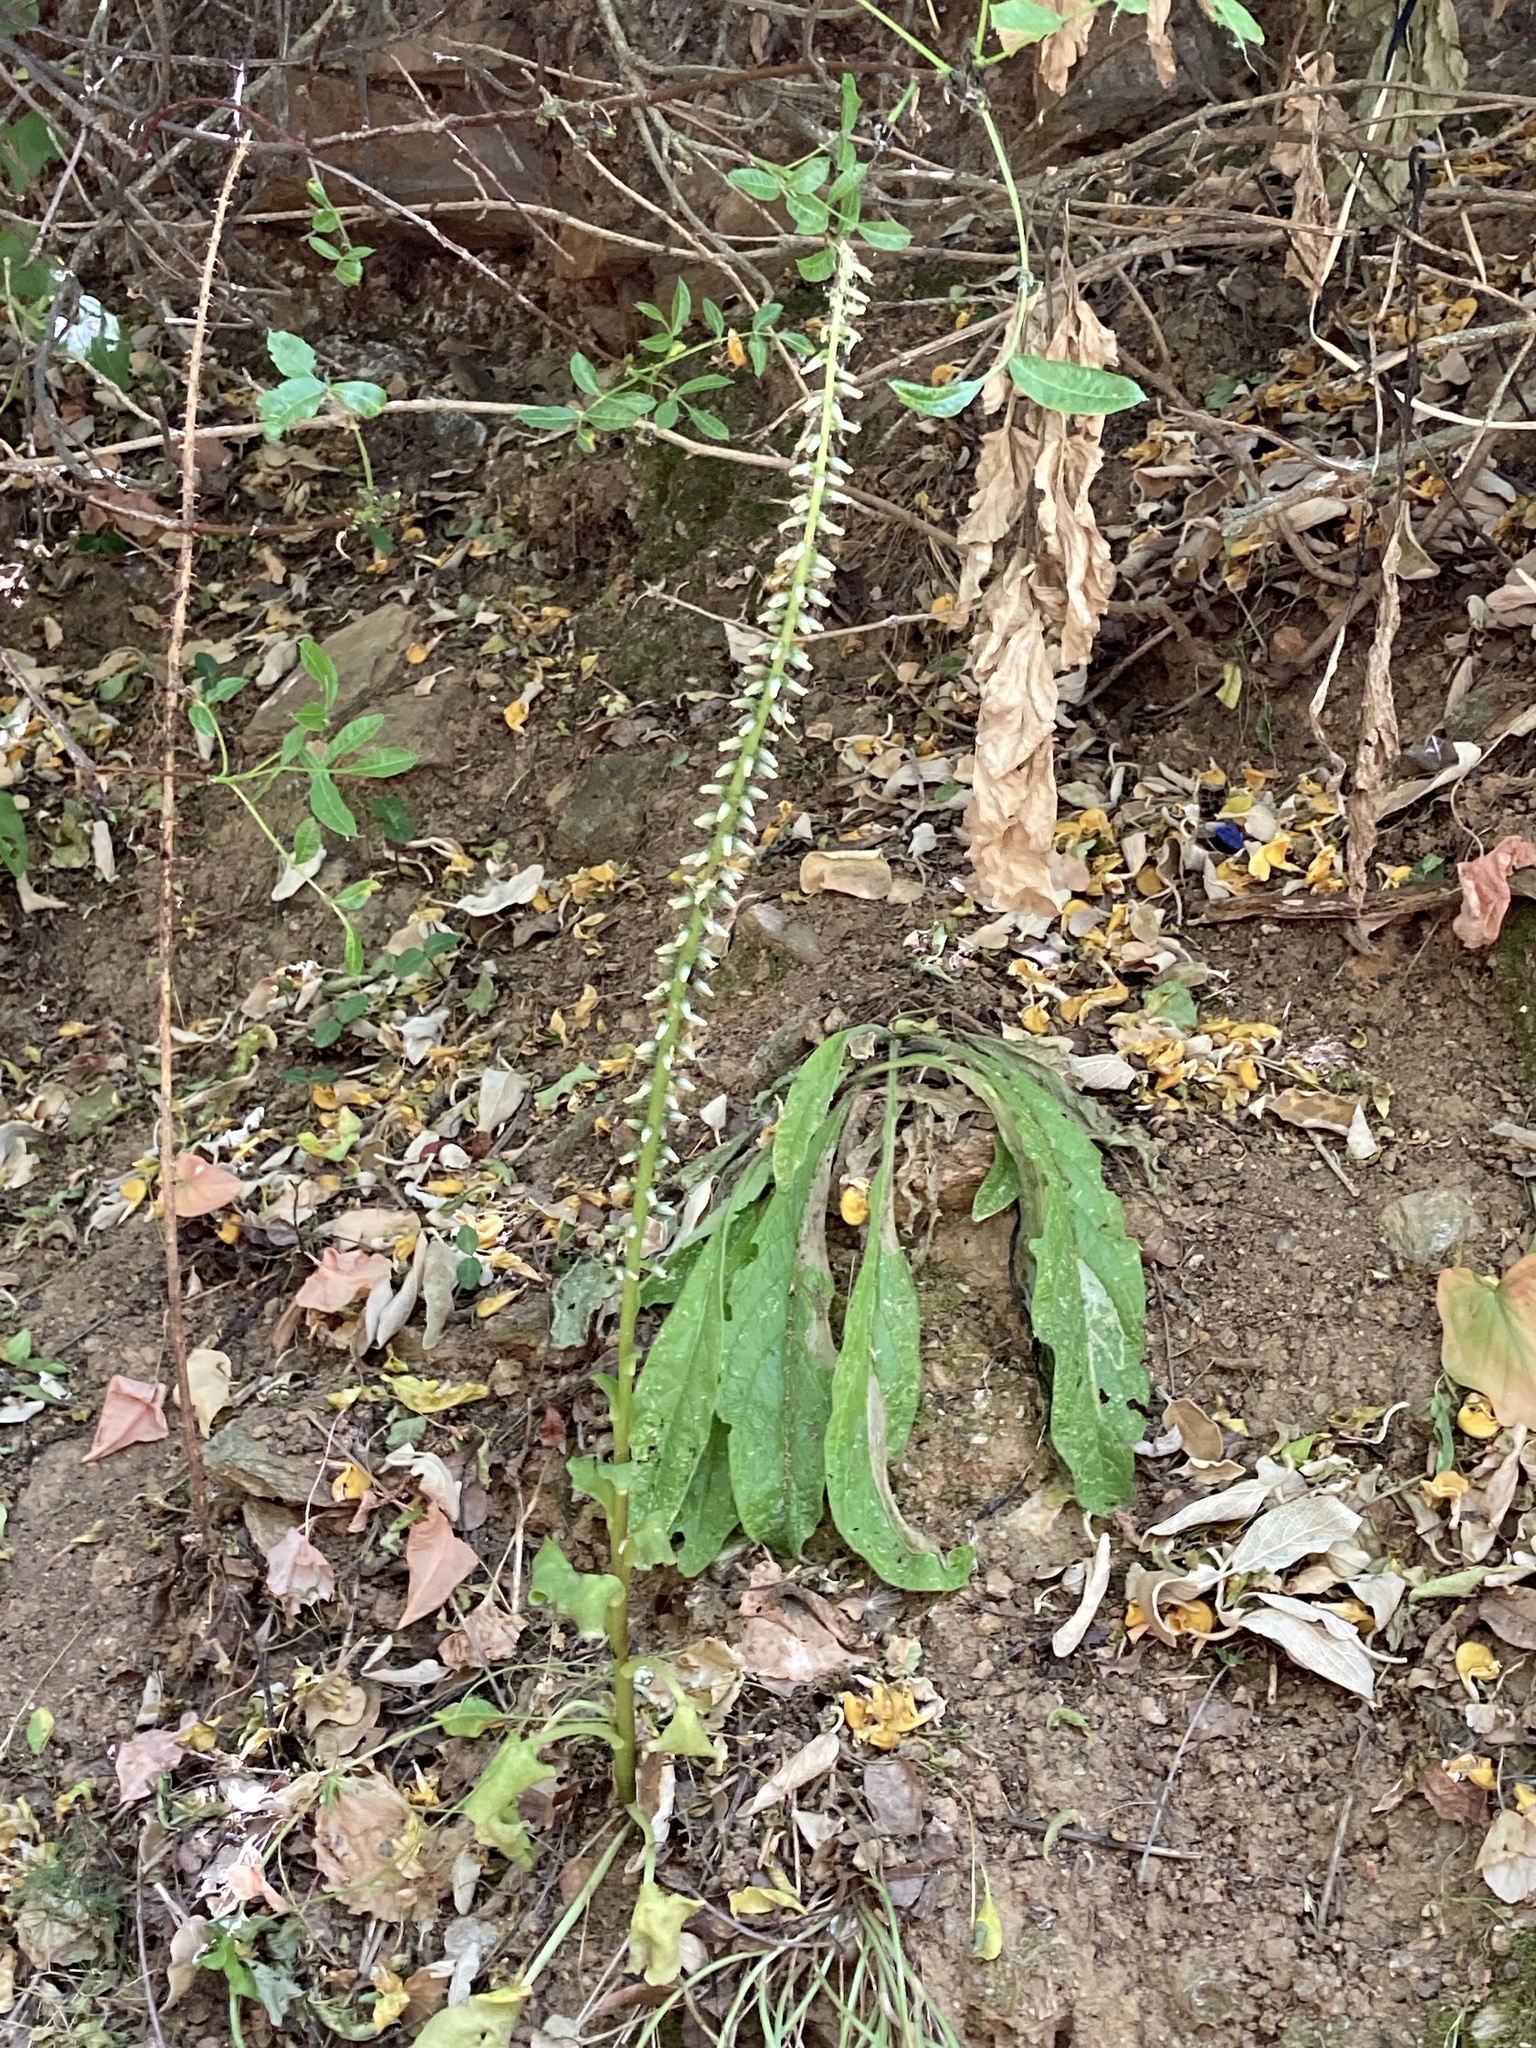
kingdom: Plantae
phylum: Tracheophyta
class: Magnoliopsida
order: Saxifragales
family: Crassulaceae
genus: Umbilicus
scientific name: Umbilicus rupestris
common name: Navelwort
